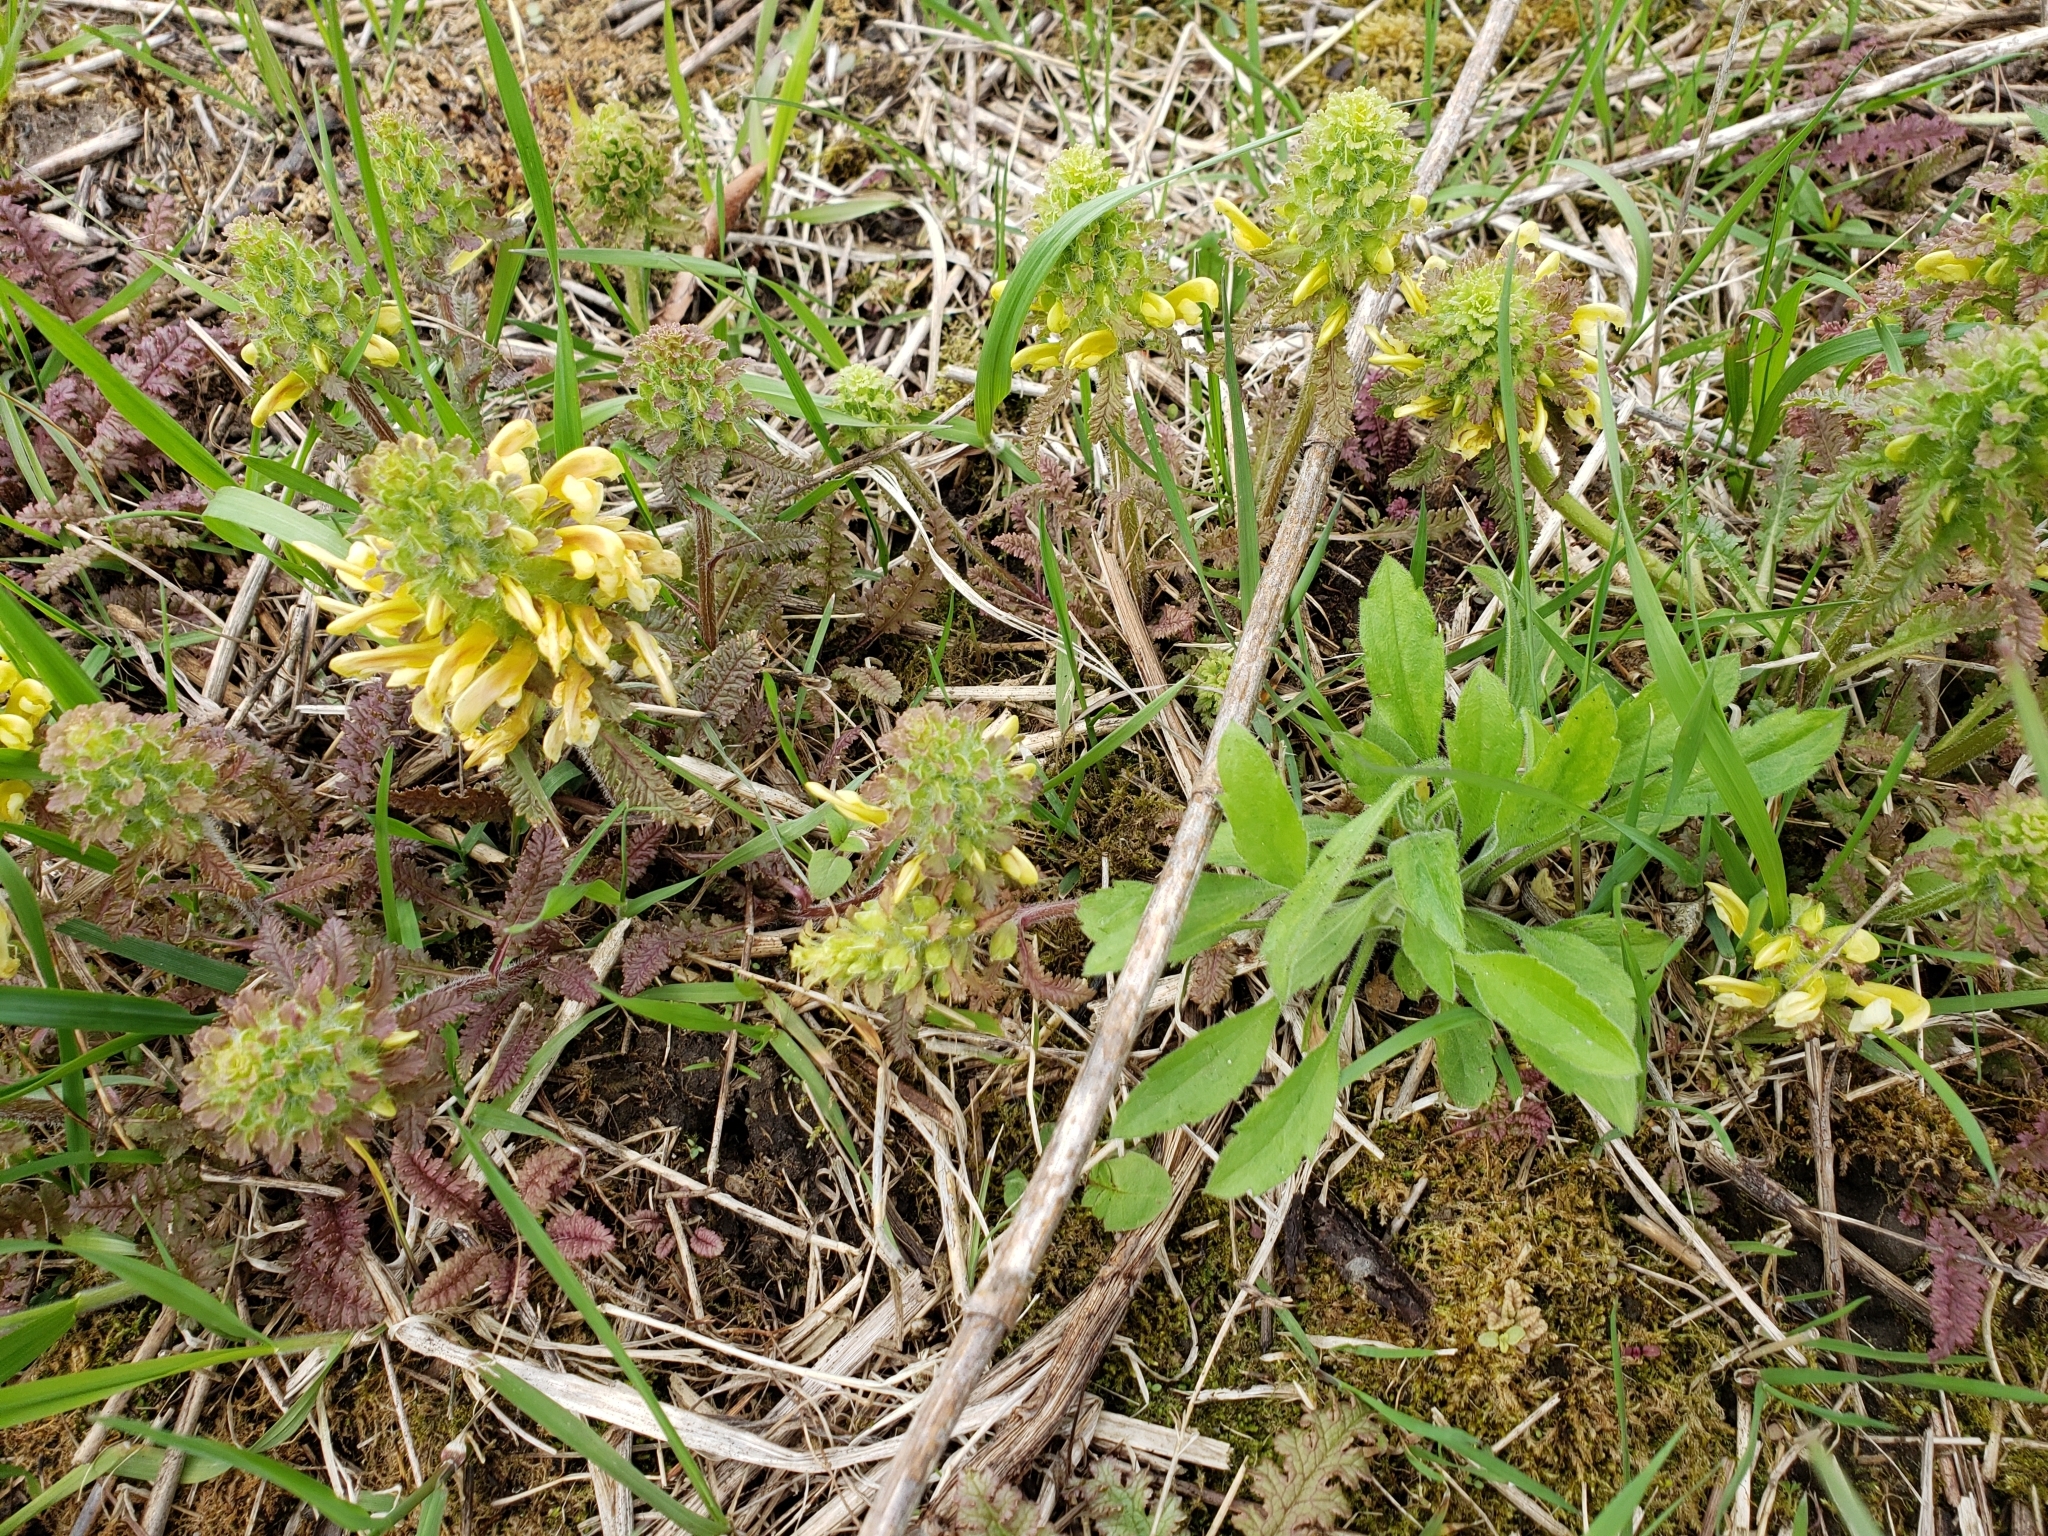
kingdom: Plantae
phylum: Tracheophyta
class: Magnoliopsida
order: Lamiales
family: Orobanchaceae
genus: Pedicularis
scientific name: Pedicularis canadensis
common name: Early lousewort
